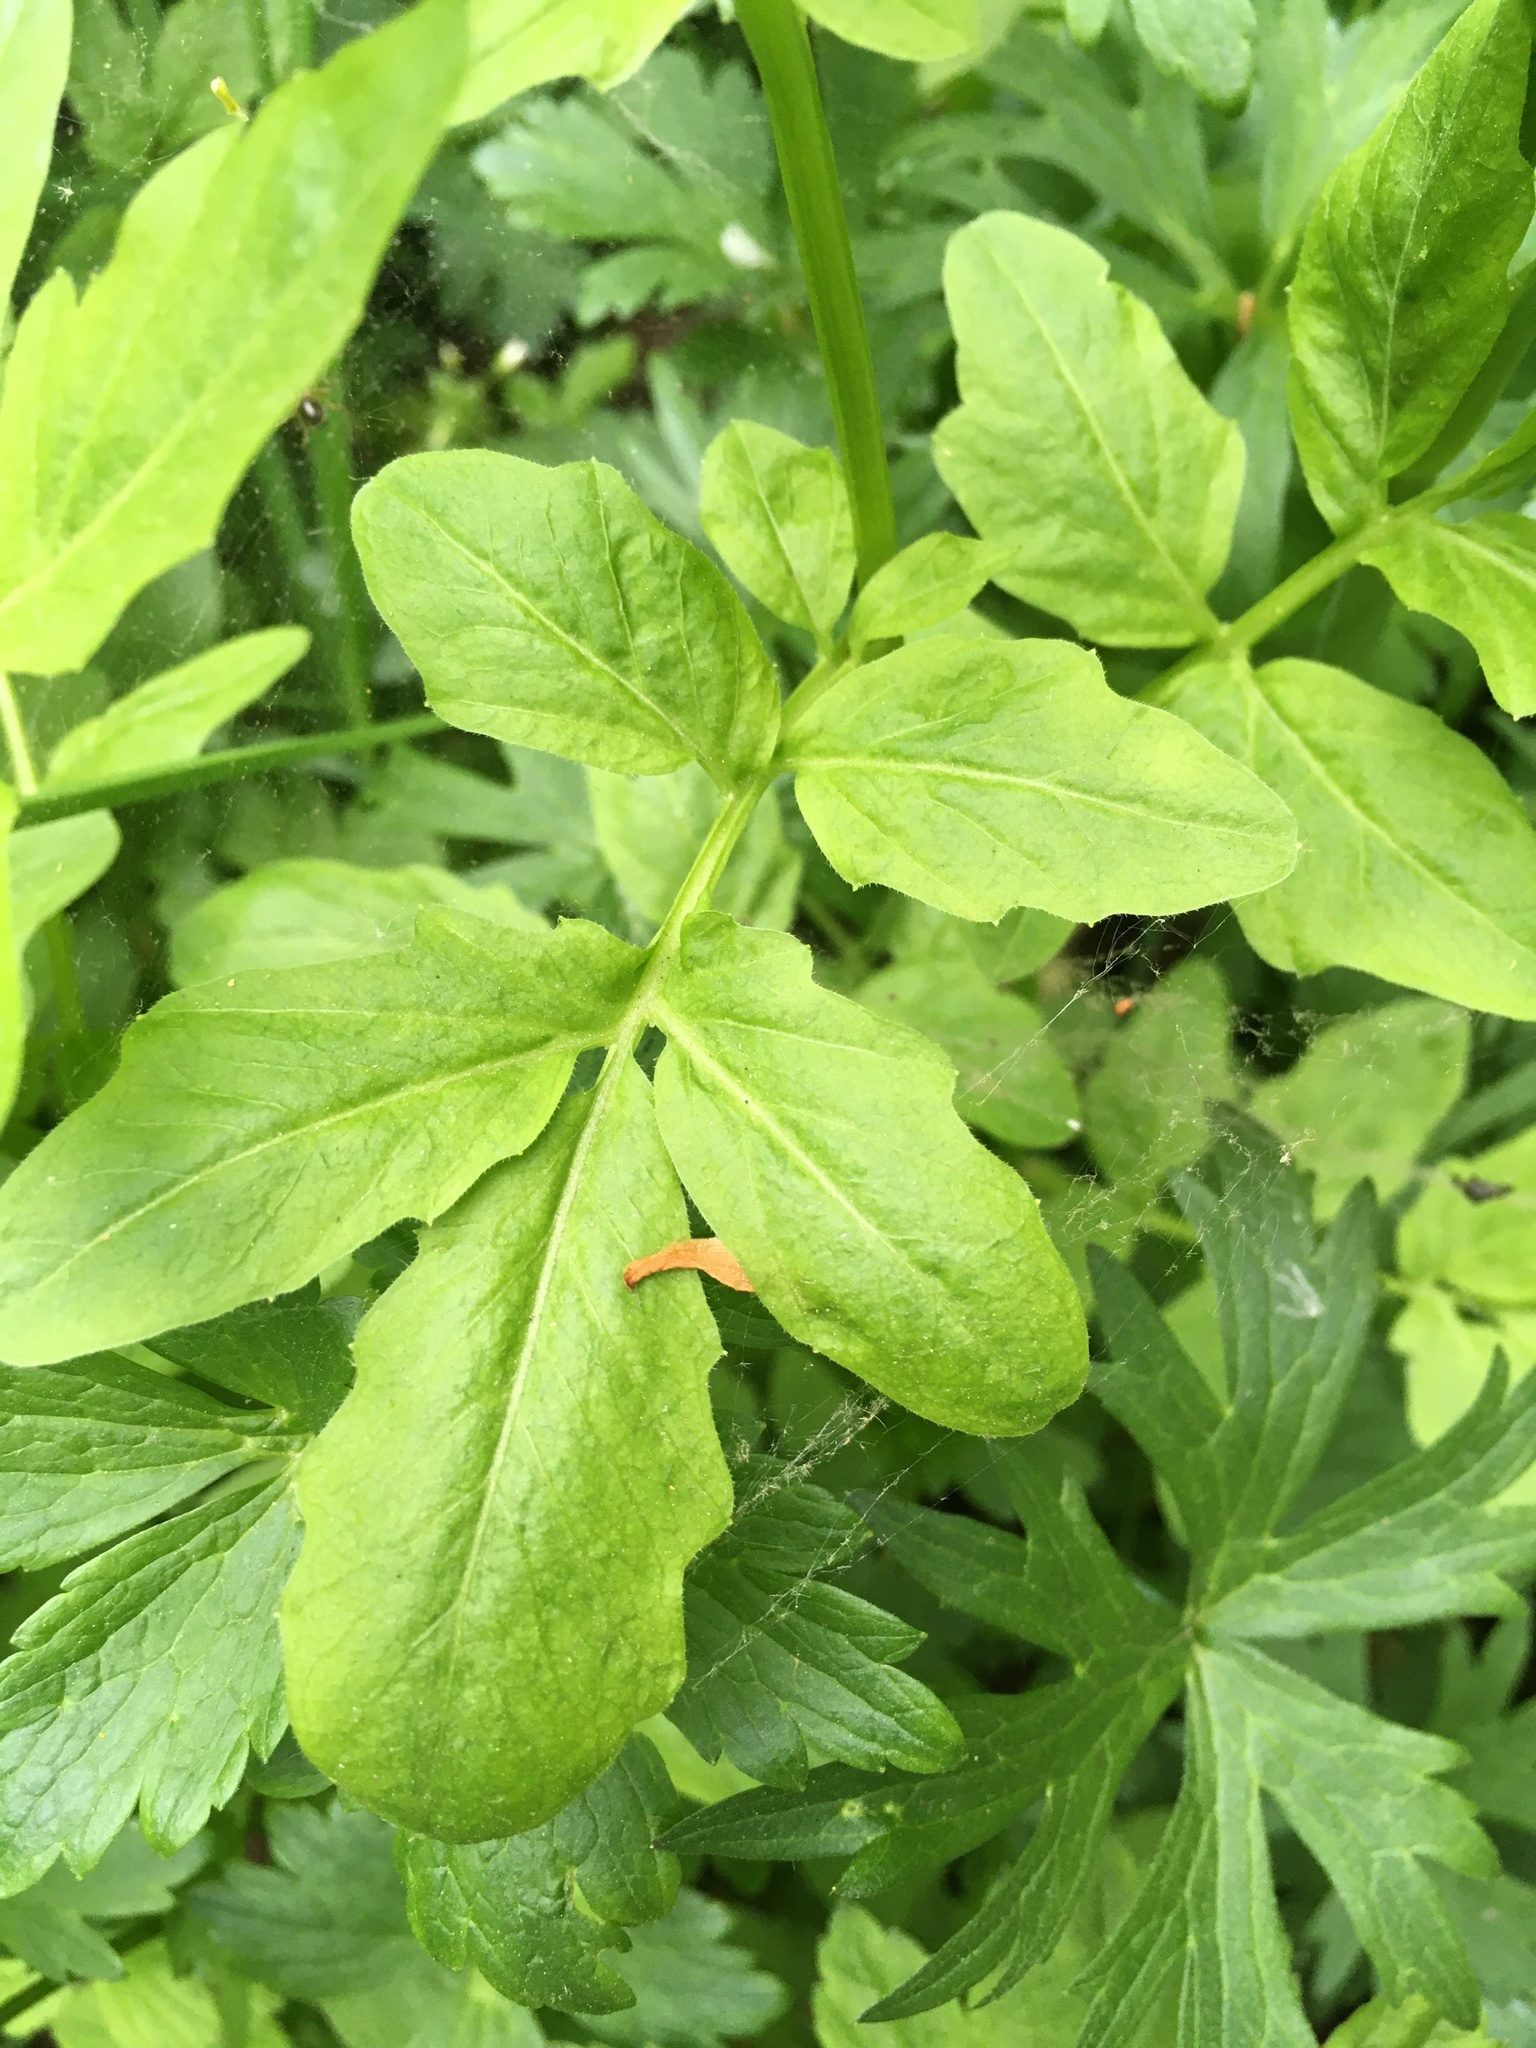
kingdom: Plantae
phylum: Tracheophyta
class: Magnoliopsida
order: Brassicales
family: Brassicaceae
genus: Cardamine
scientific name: Cardamine amara
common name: Large bitter-cress
